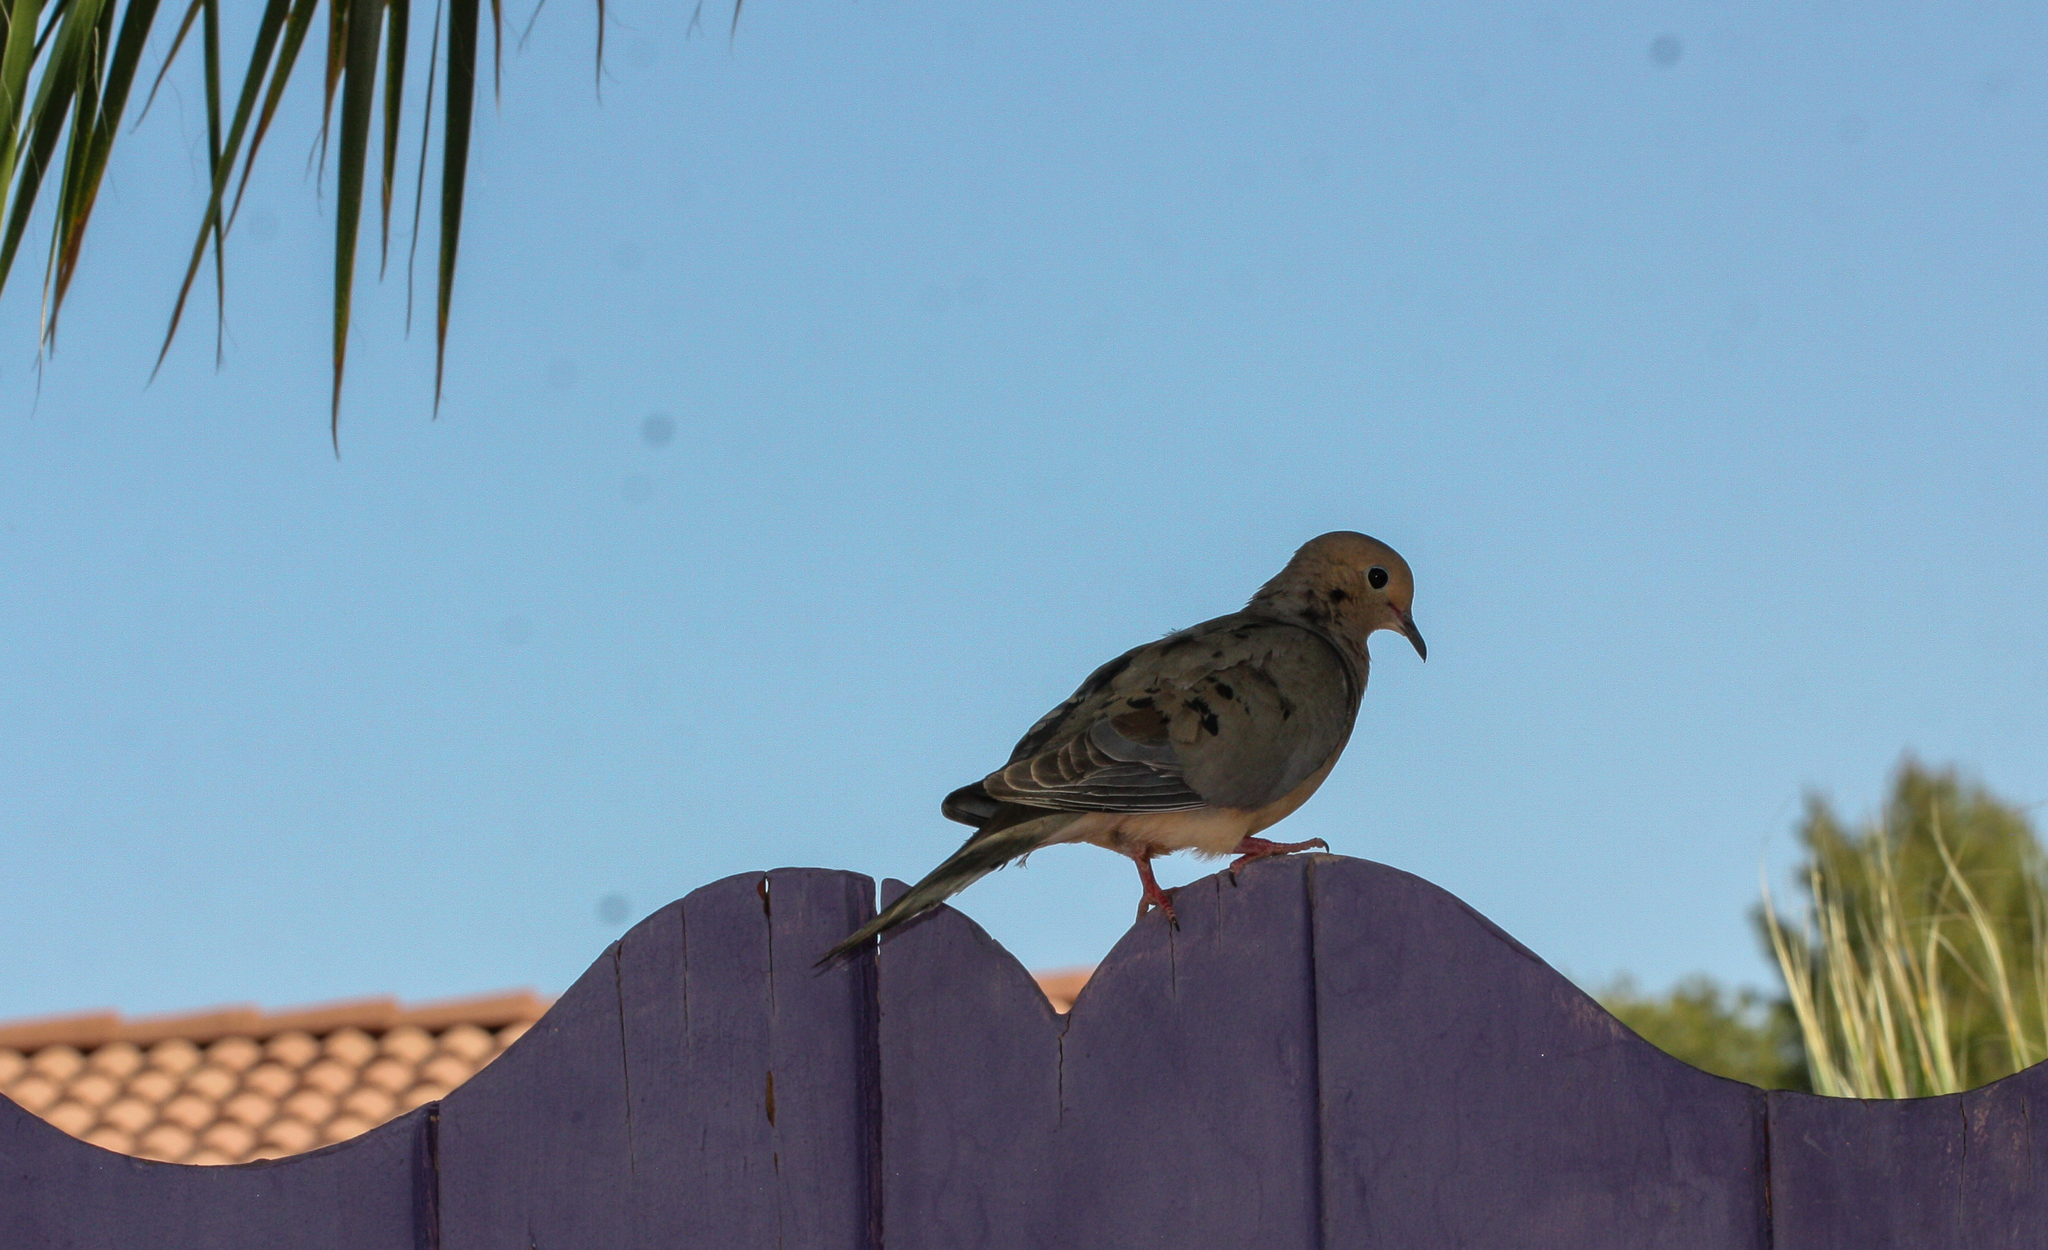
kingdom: Animalia
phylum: Chordata
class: Aves
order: Columbiformes
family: Columbidae
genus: Zenaida
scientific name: Zenaida macroura
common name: Mourning dove
